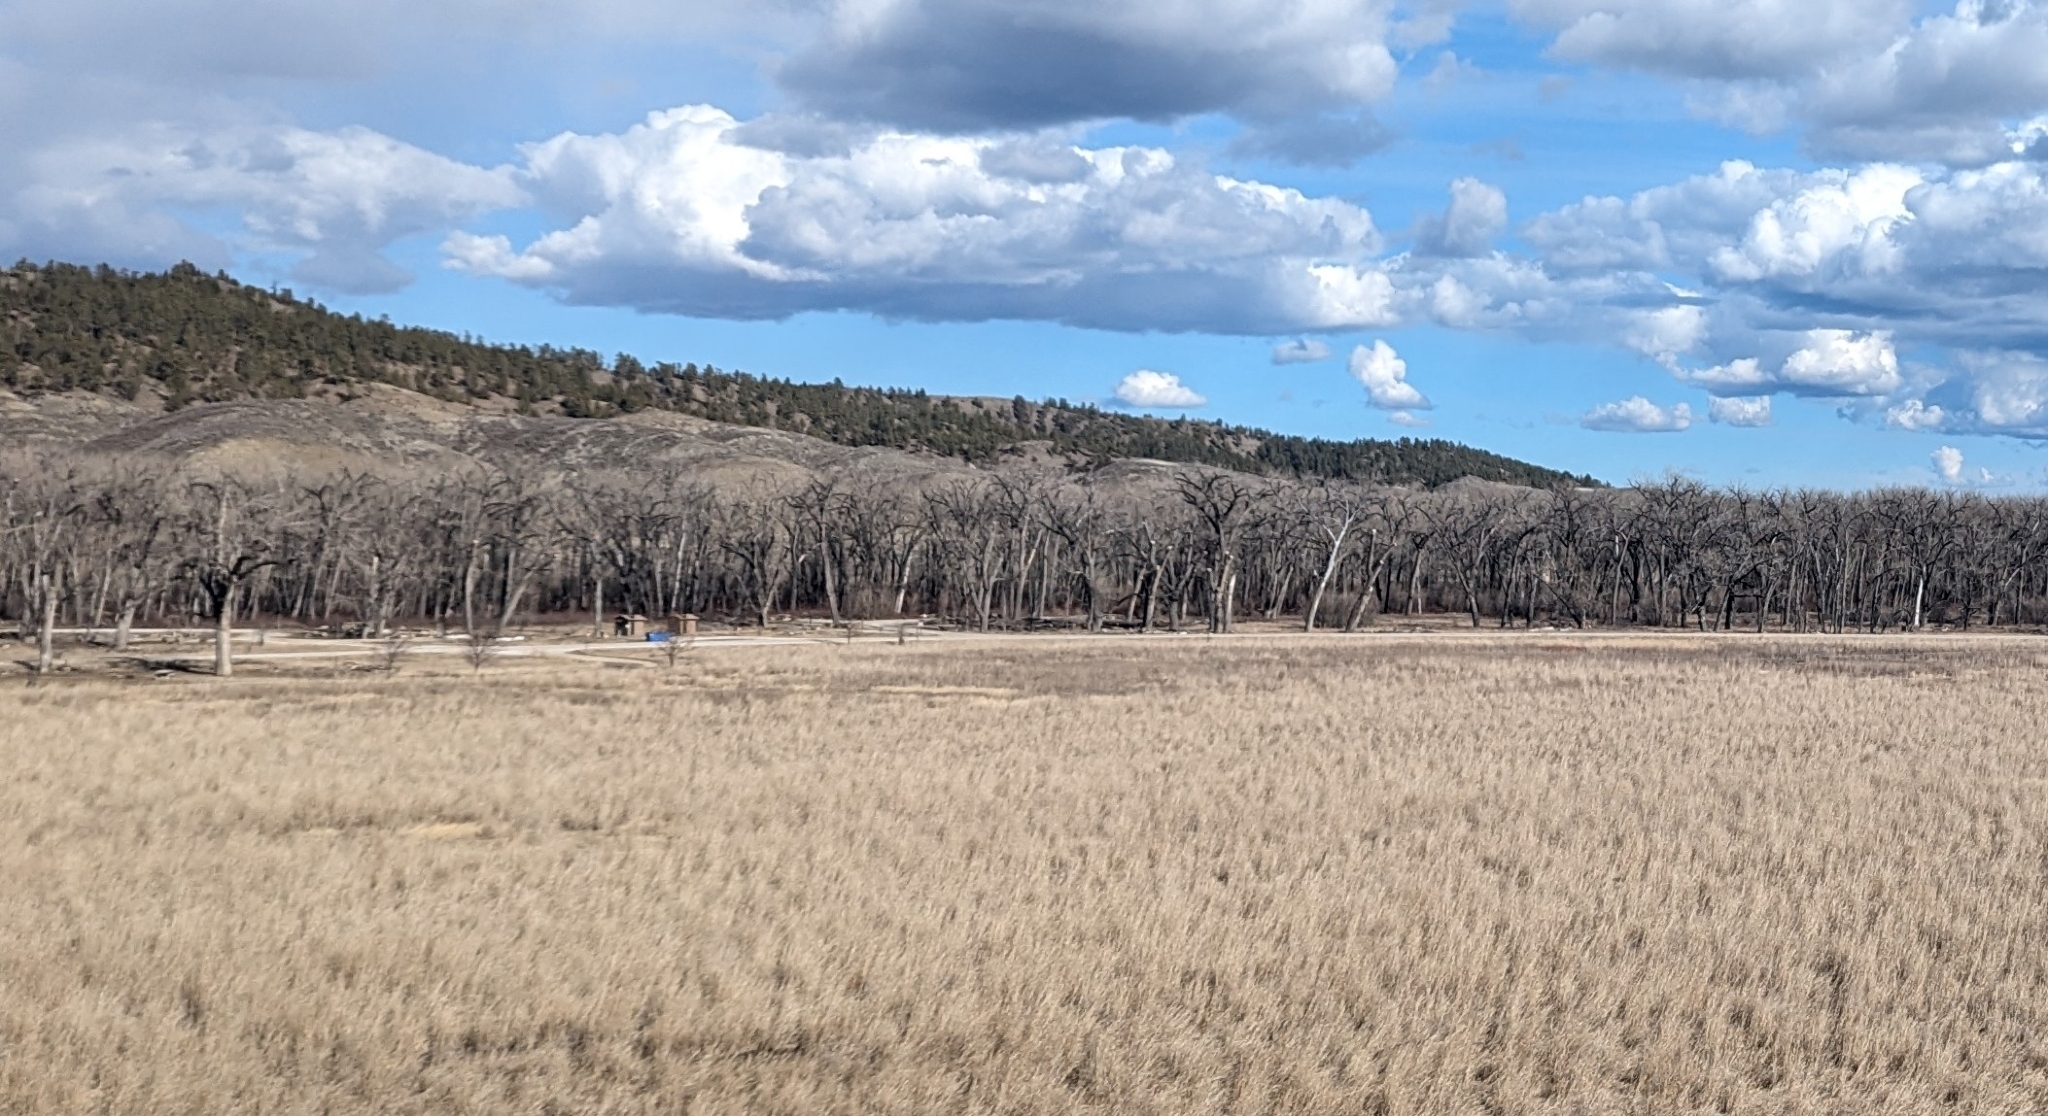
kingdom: Plantae
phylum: Tracheophyta
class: Magnoliopsida
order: Malpighiales
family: Salicaceae
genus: Populus
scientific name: Populus deltoides
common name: Eastern cottonwood
